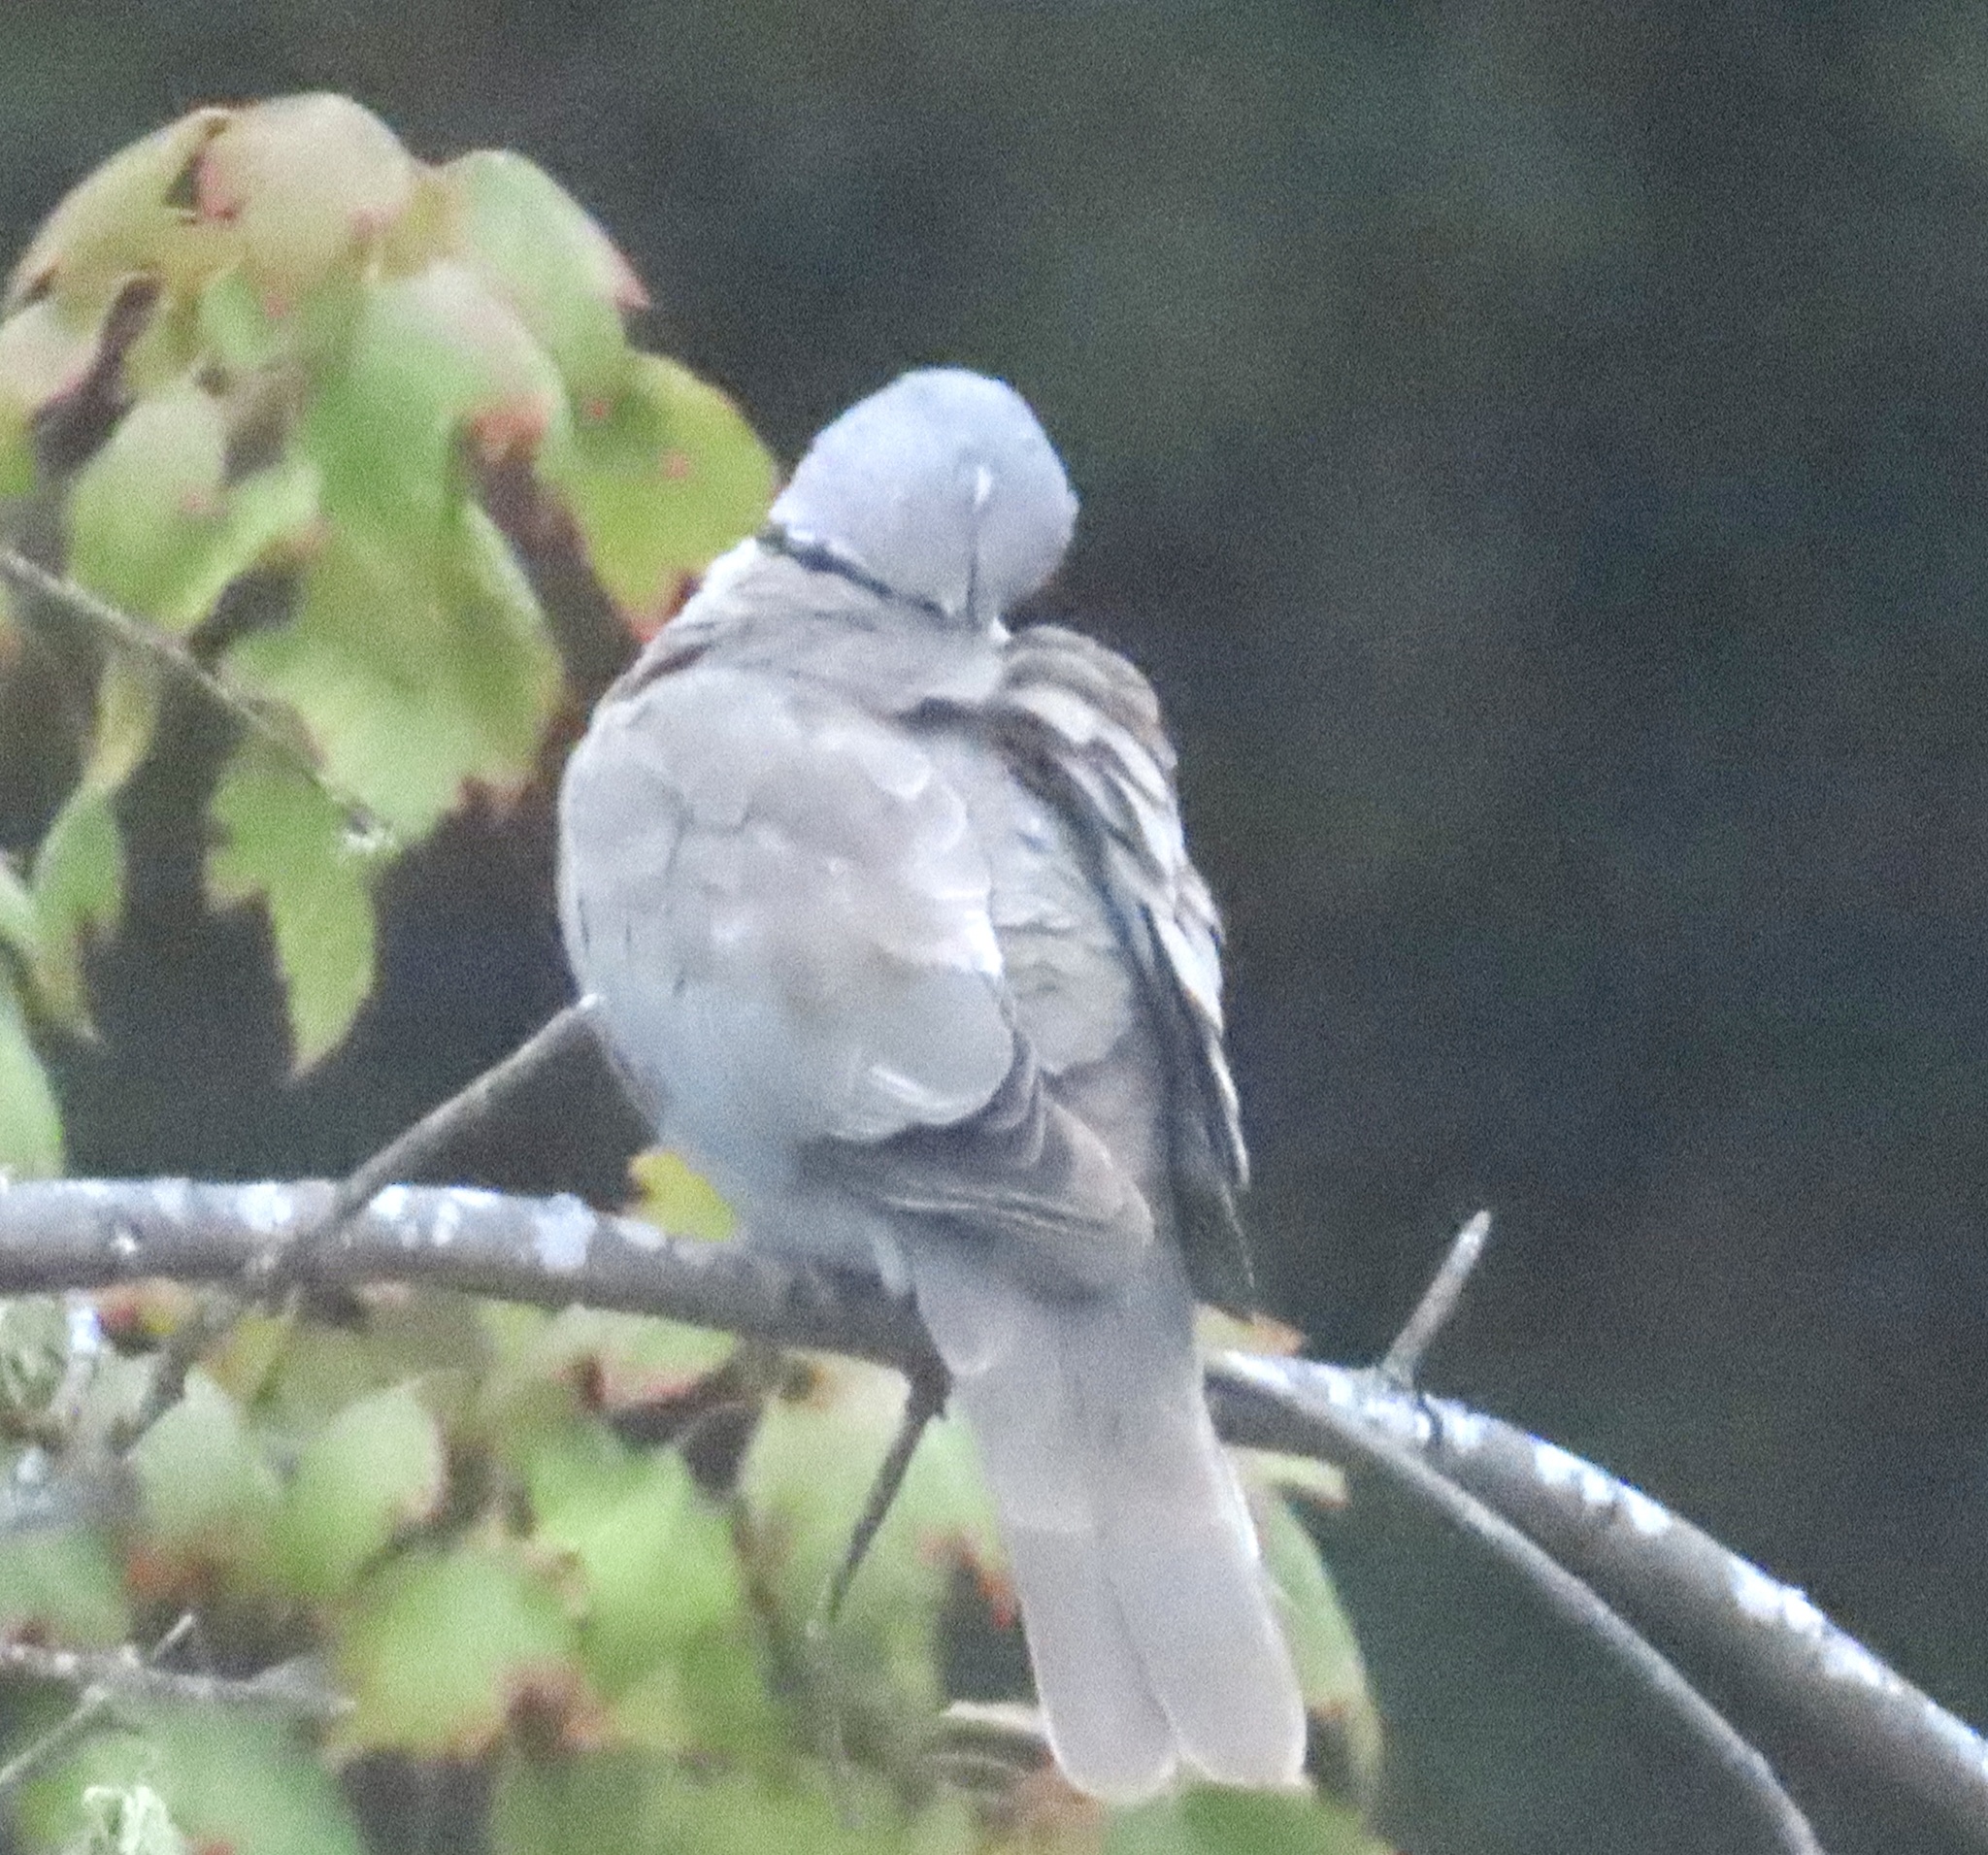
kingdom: Animalia
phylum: Chordata
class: Aves
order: Columbiformes
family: Columbidae
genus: Streptopelia
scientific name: Streptopelia decaocto
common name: Eurasian collared dove
